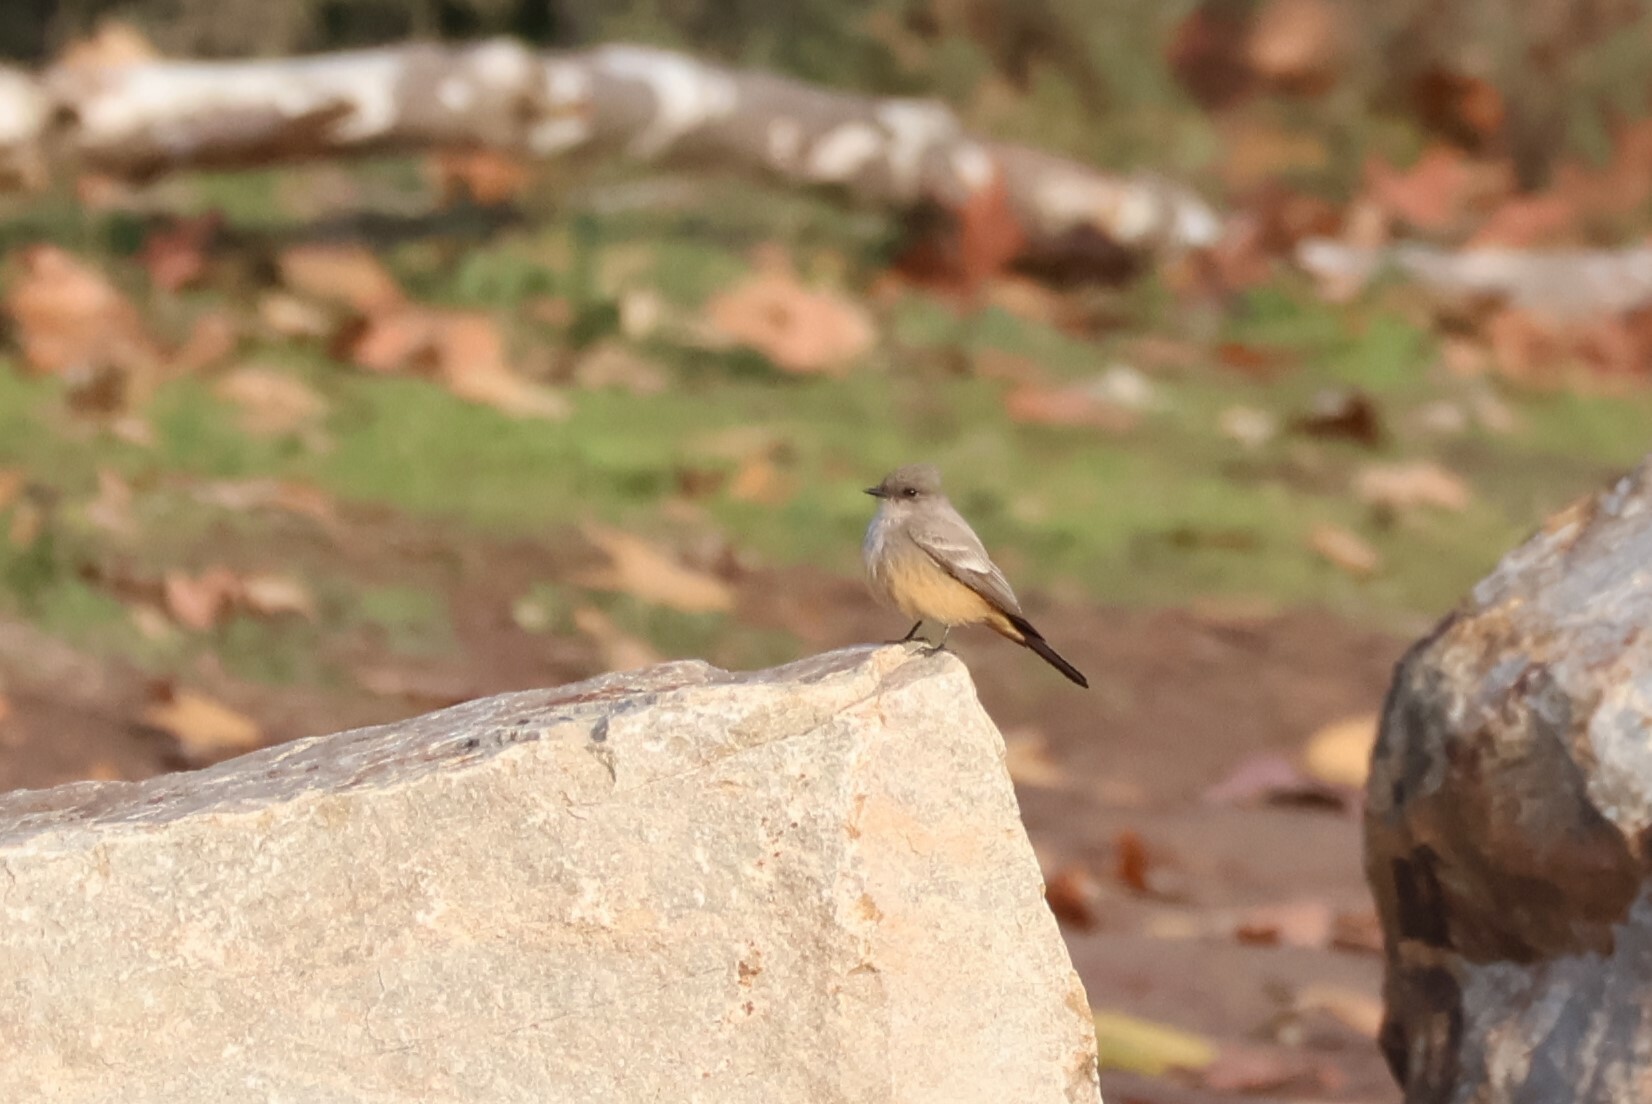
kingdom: Animalia
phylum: Chordata
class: Aves
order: Passeriformes
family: Tyrannidae
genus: Sayornis
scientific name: Sayornis saya
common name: Say's phoebe
